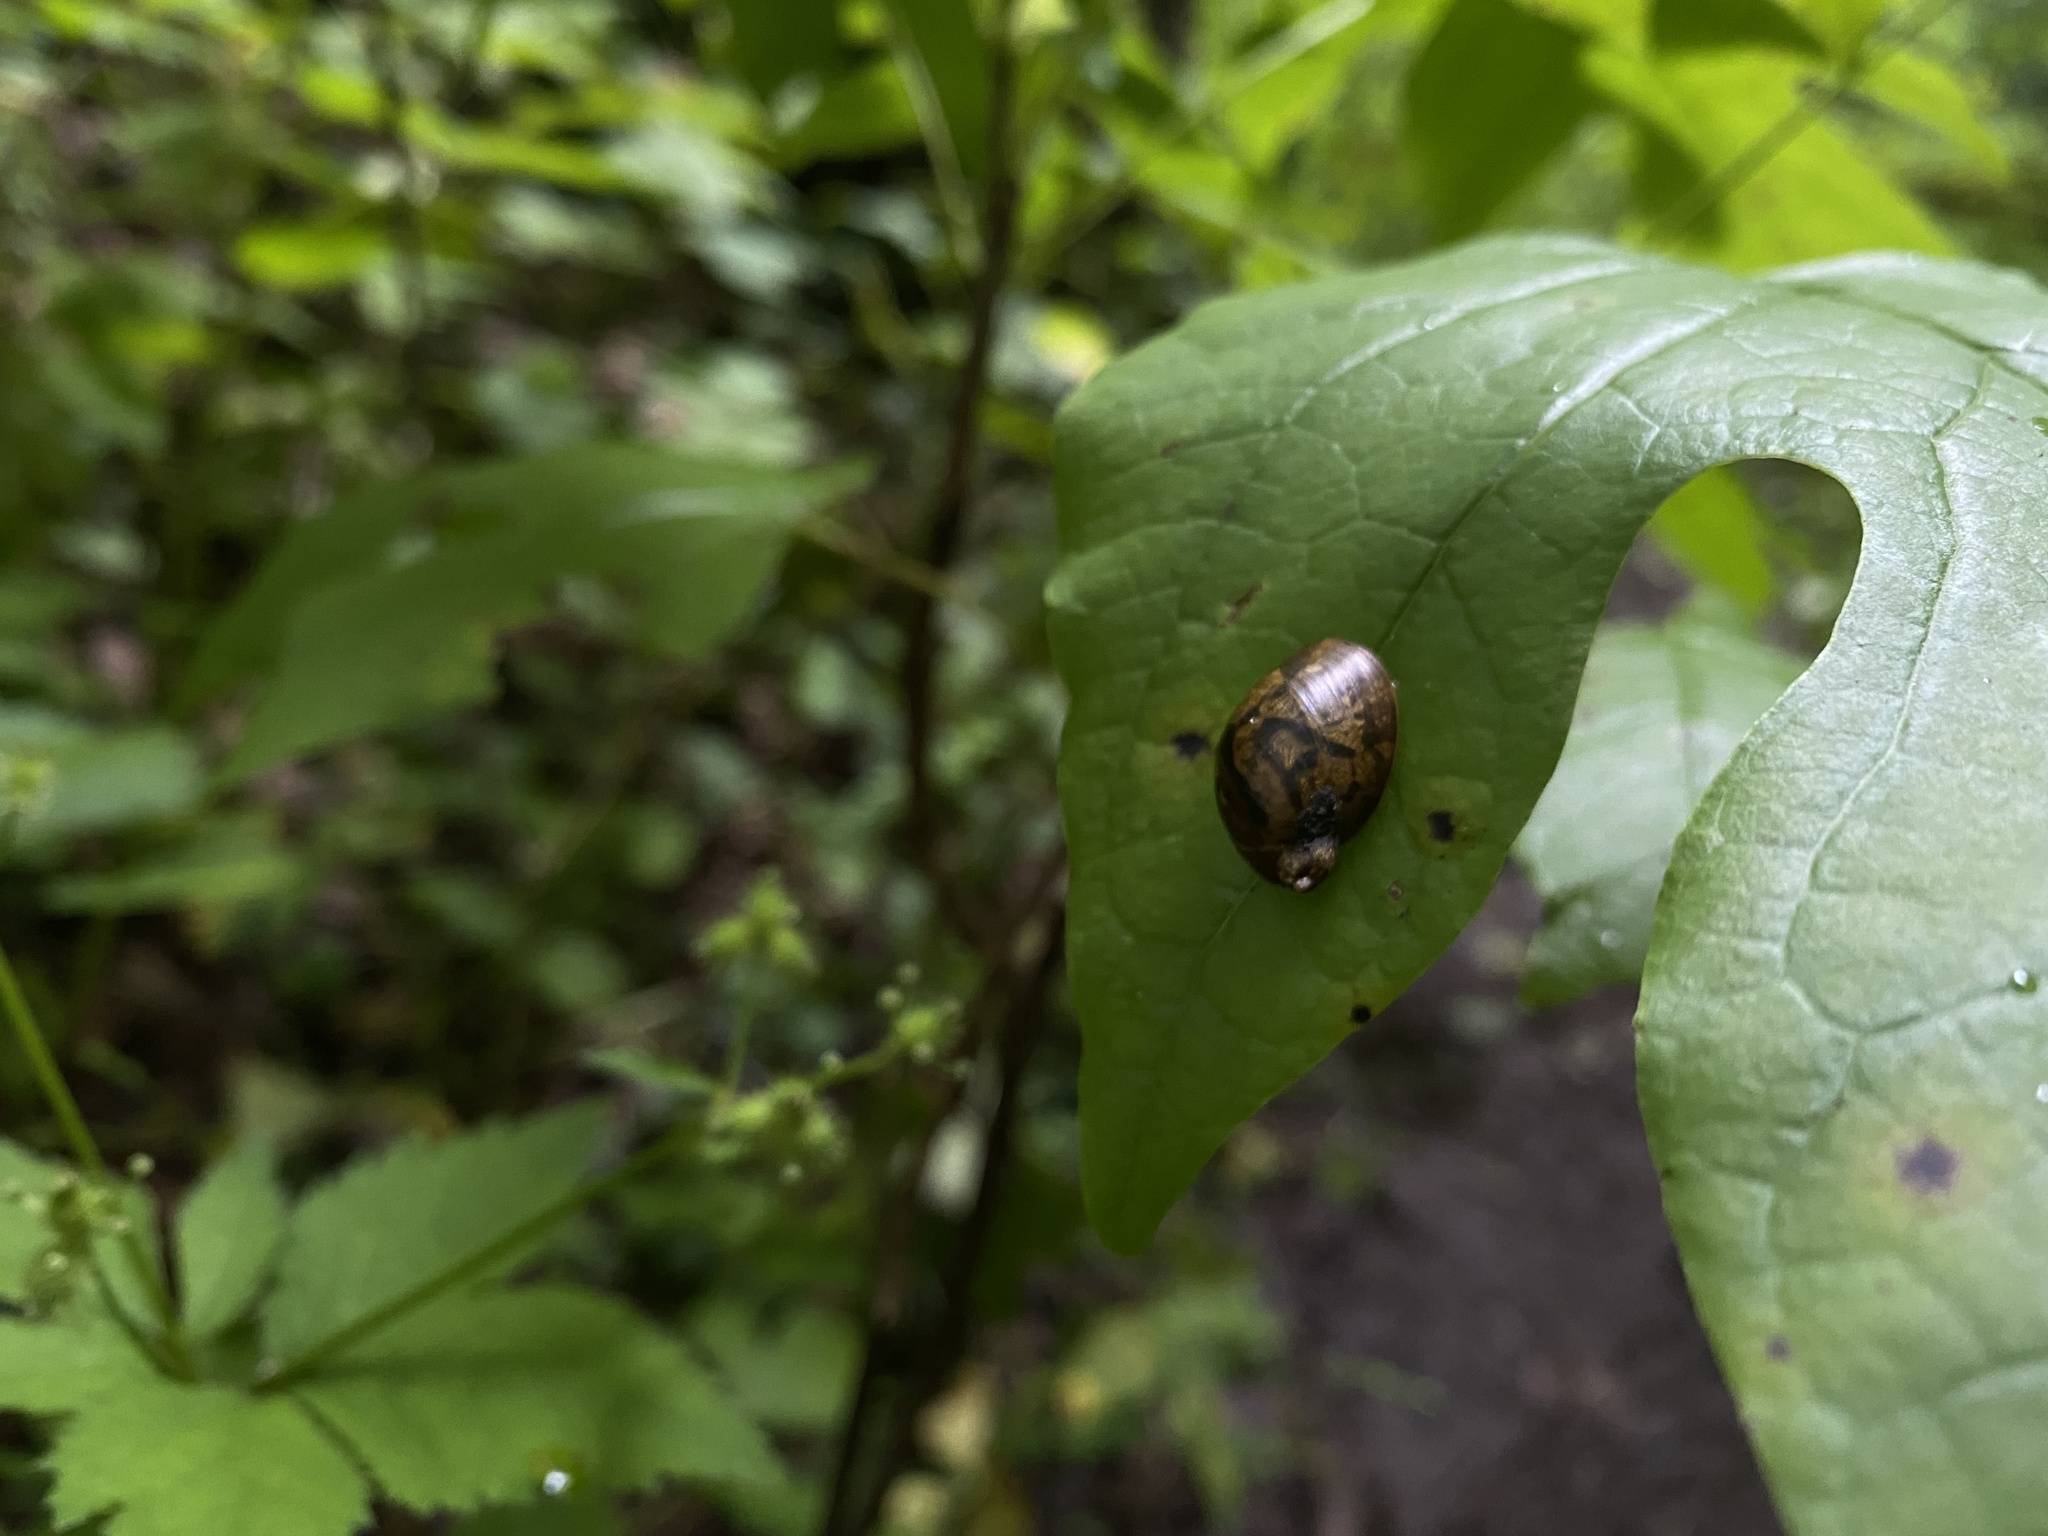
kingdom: Animalia
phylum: Mollusca
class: Gastropoda
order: Stylommatophora
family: Succineidae
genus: Novisuccinea
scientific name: Novisuccinea ovalis
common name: Oval ambersnail
